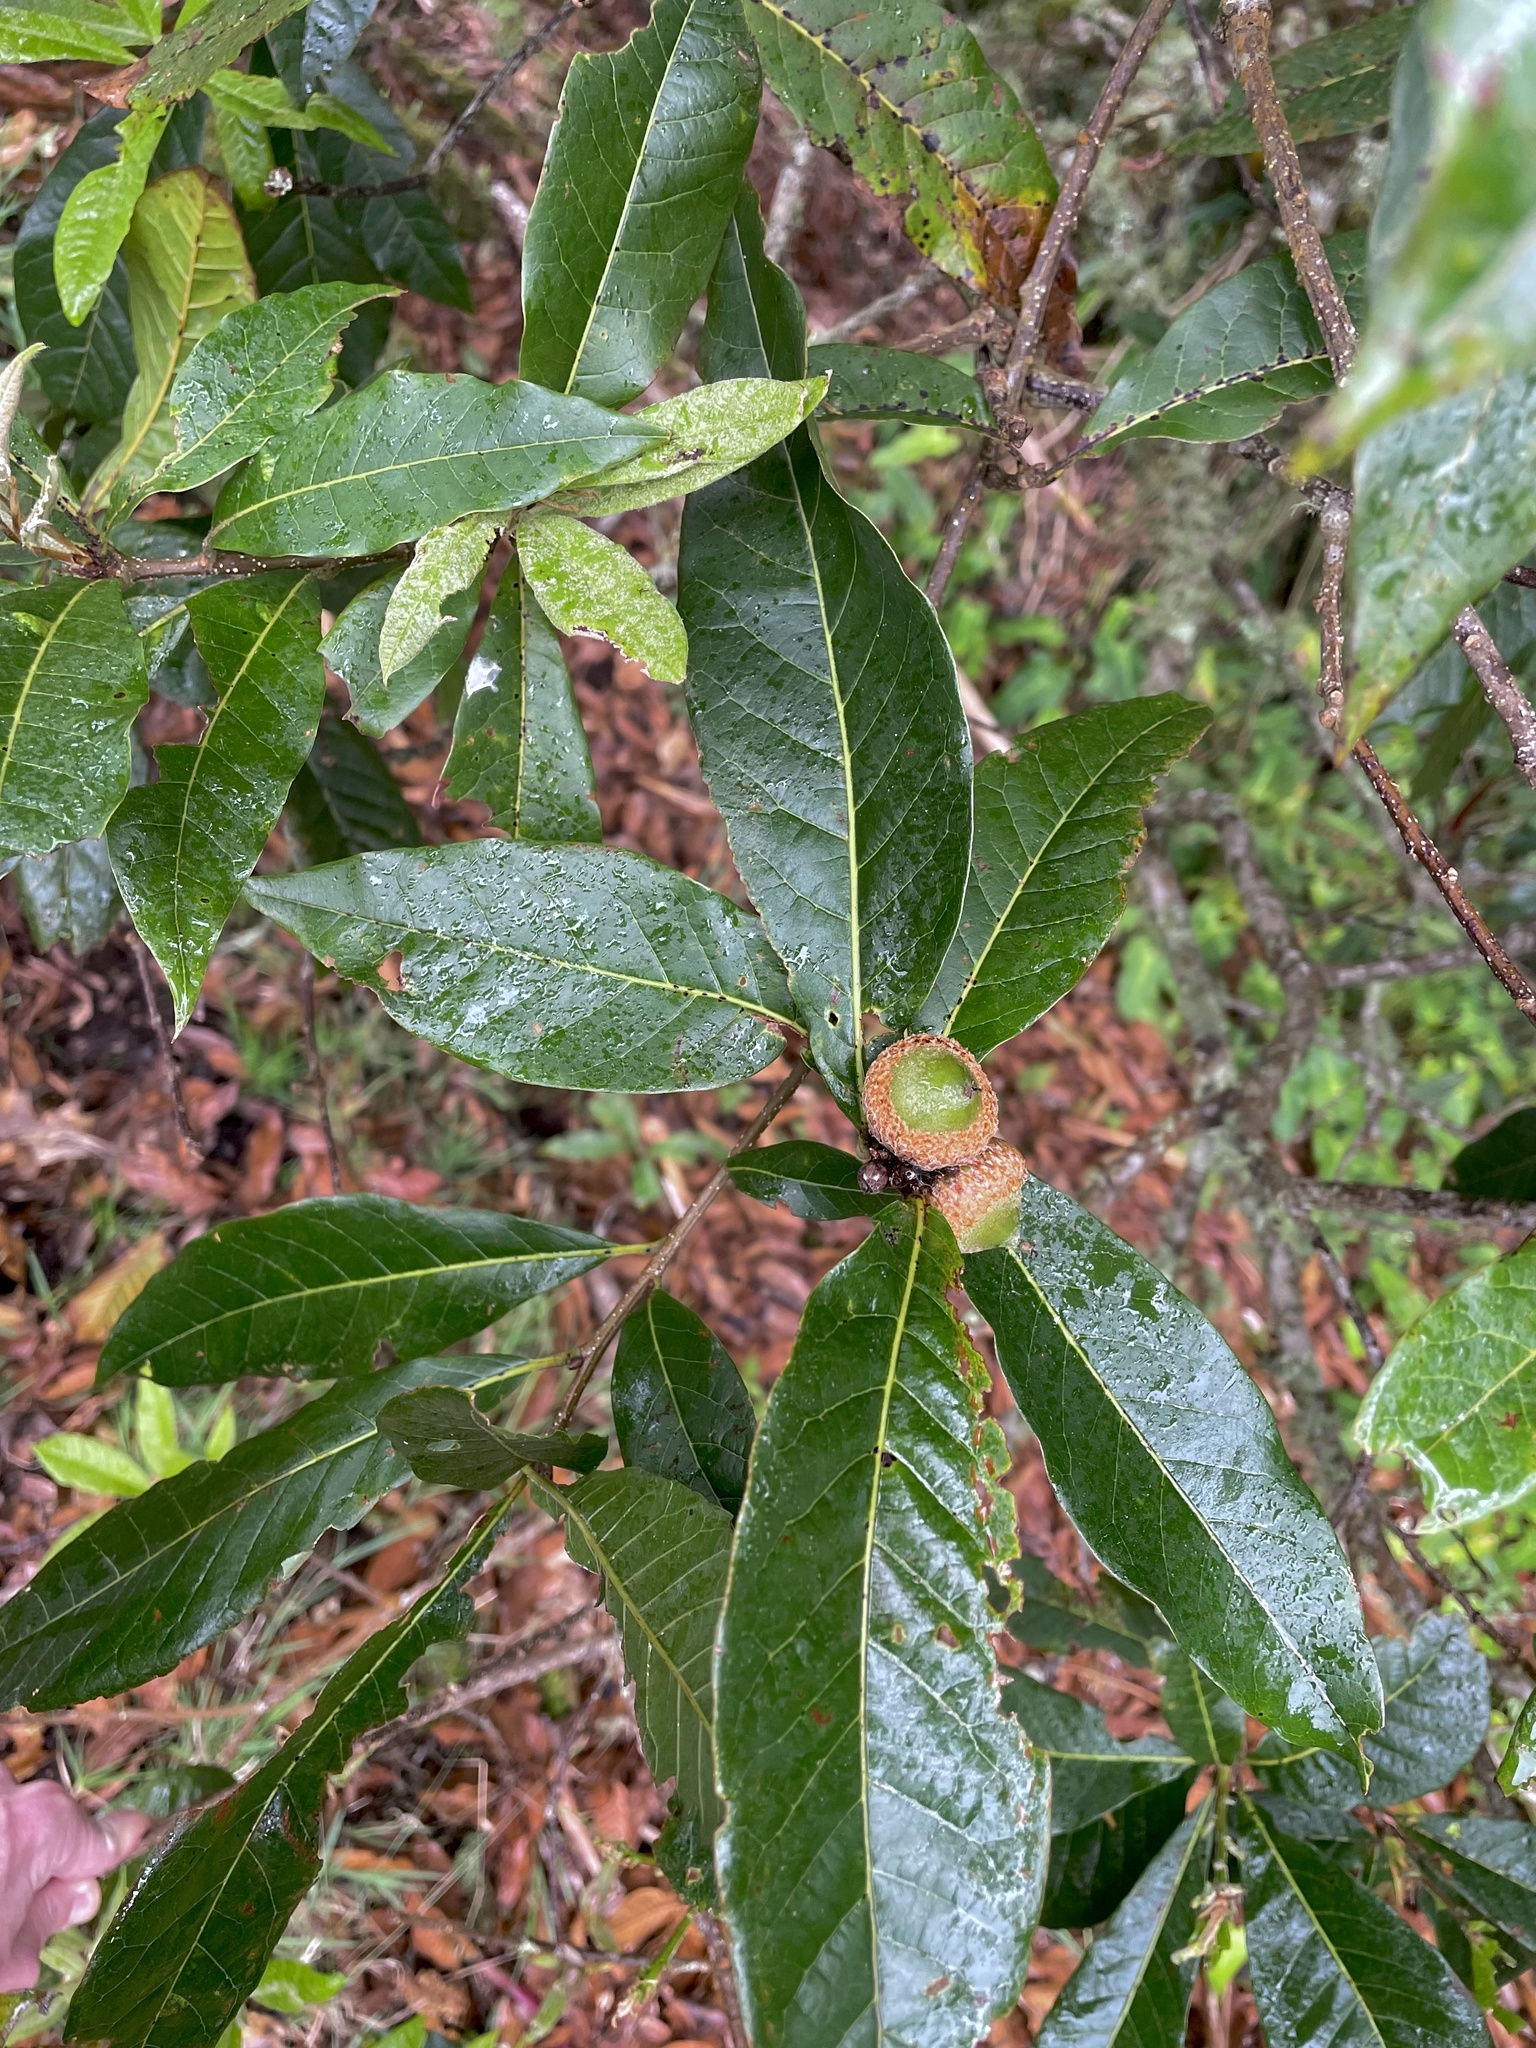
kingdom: Plantae
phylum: Tracheophyta
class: Magnoliopsida
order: Fagales
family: Fagaceae
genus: Quercus
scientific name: Quercus humboldtii
